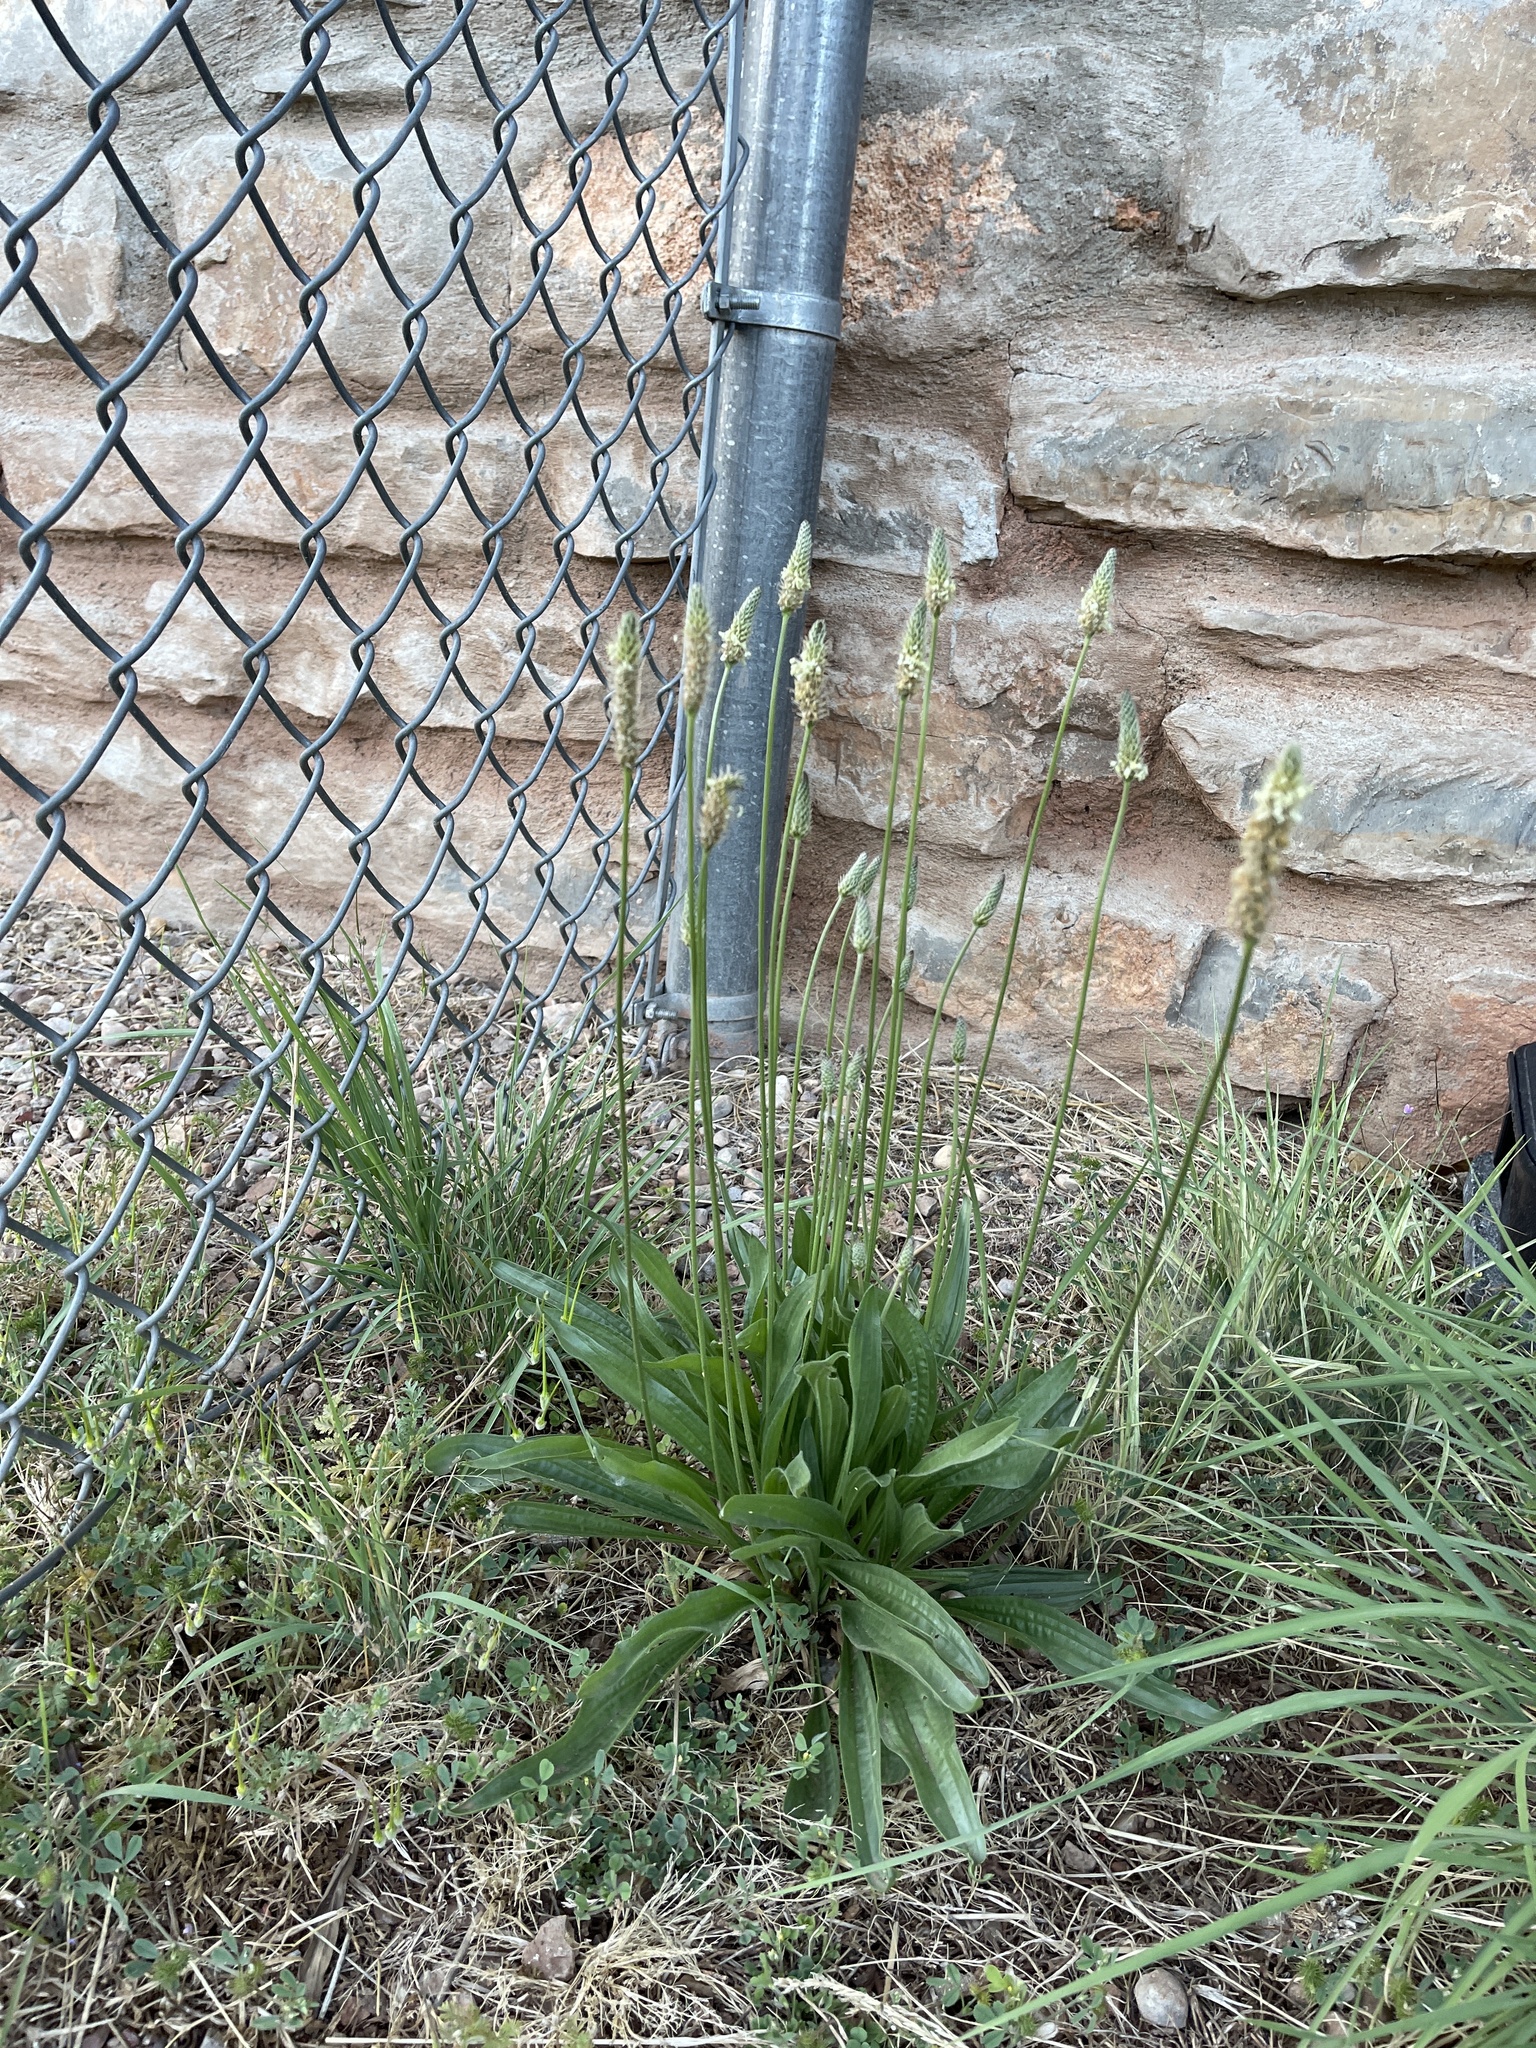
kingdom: Plantae
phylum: Tracheophyta
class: Magnoliopsida
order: Lamiales
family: Plantaginaceae
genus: Plantago
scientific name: Plantago lanceolata
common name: Ribwort plantain
